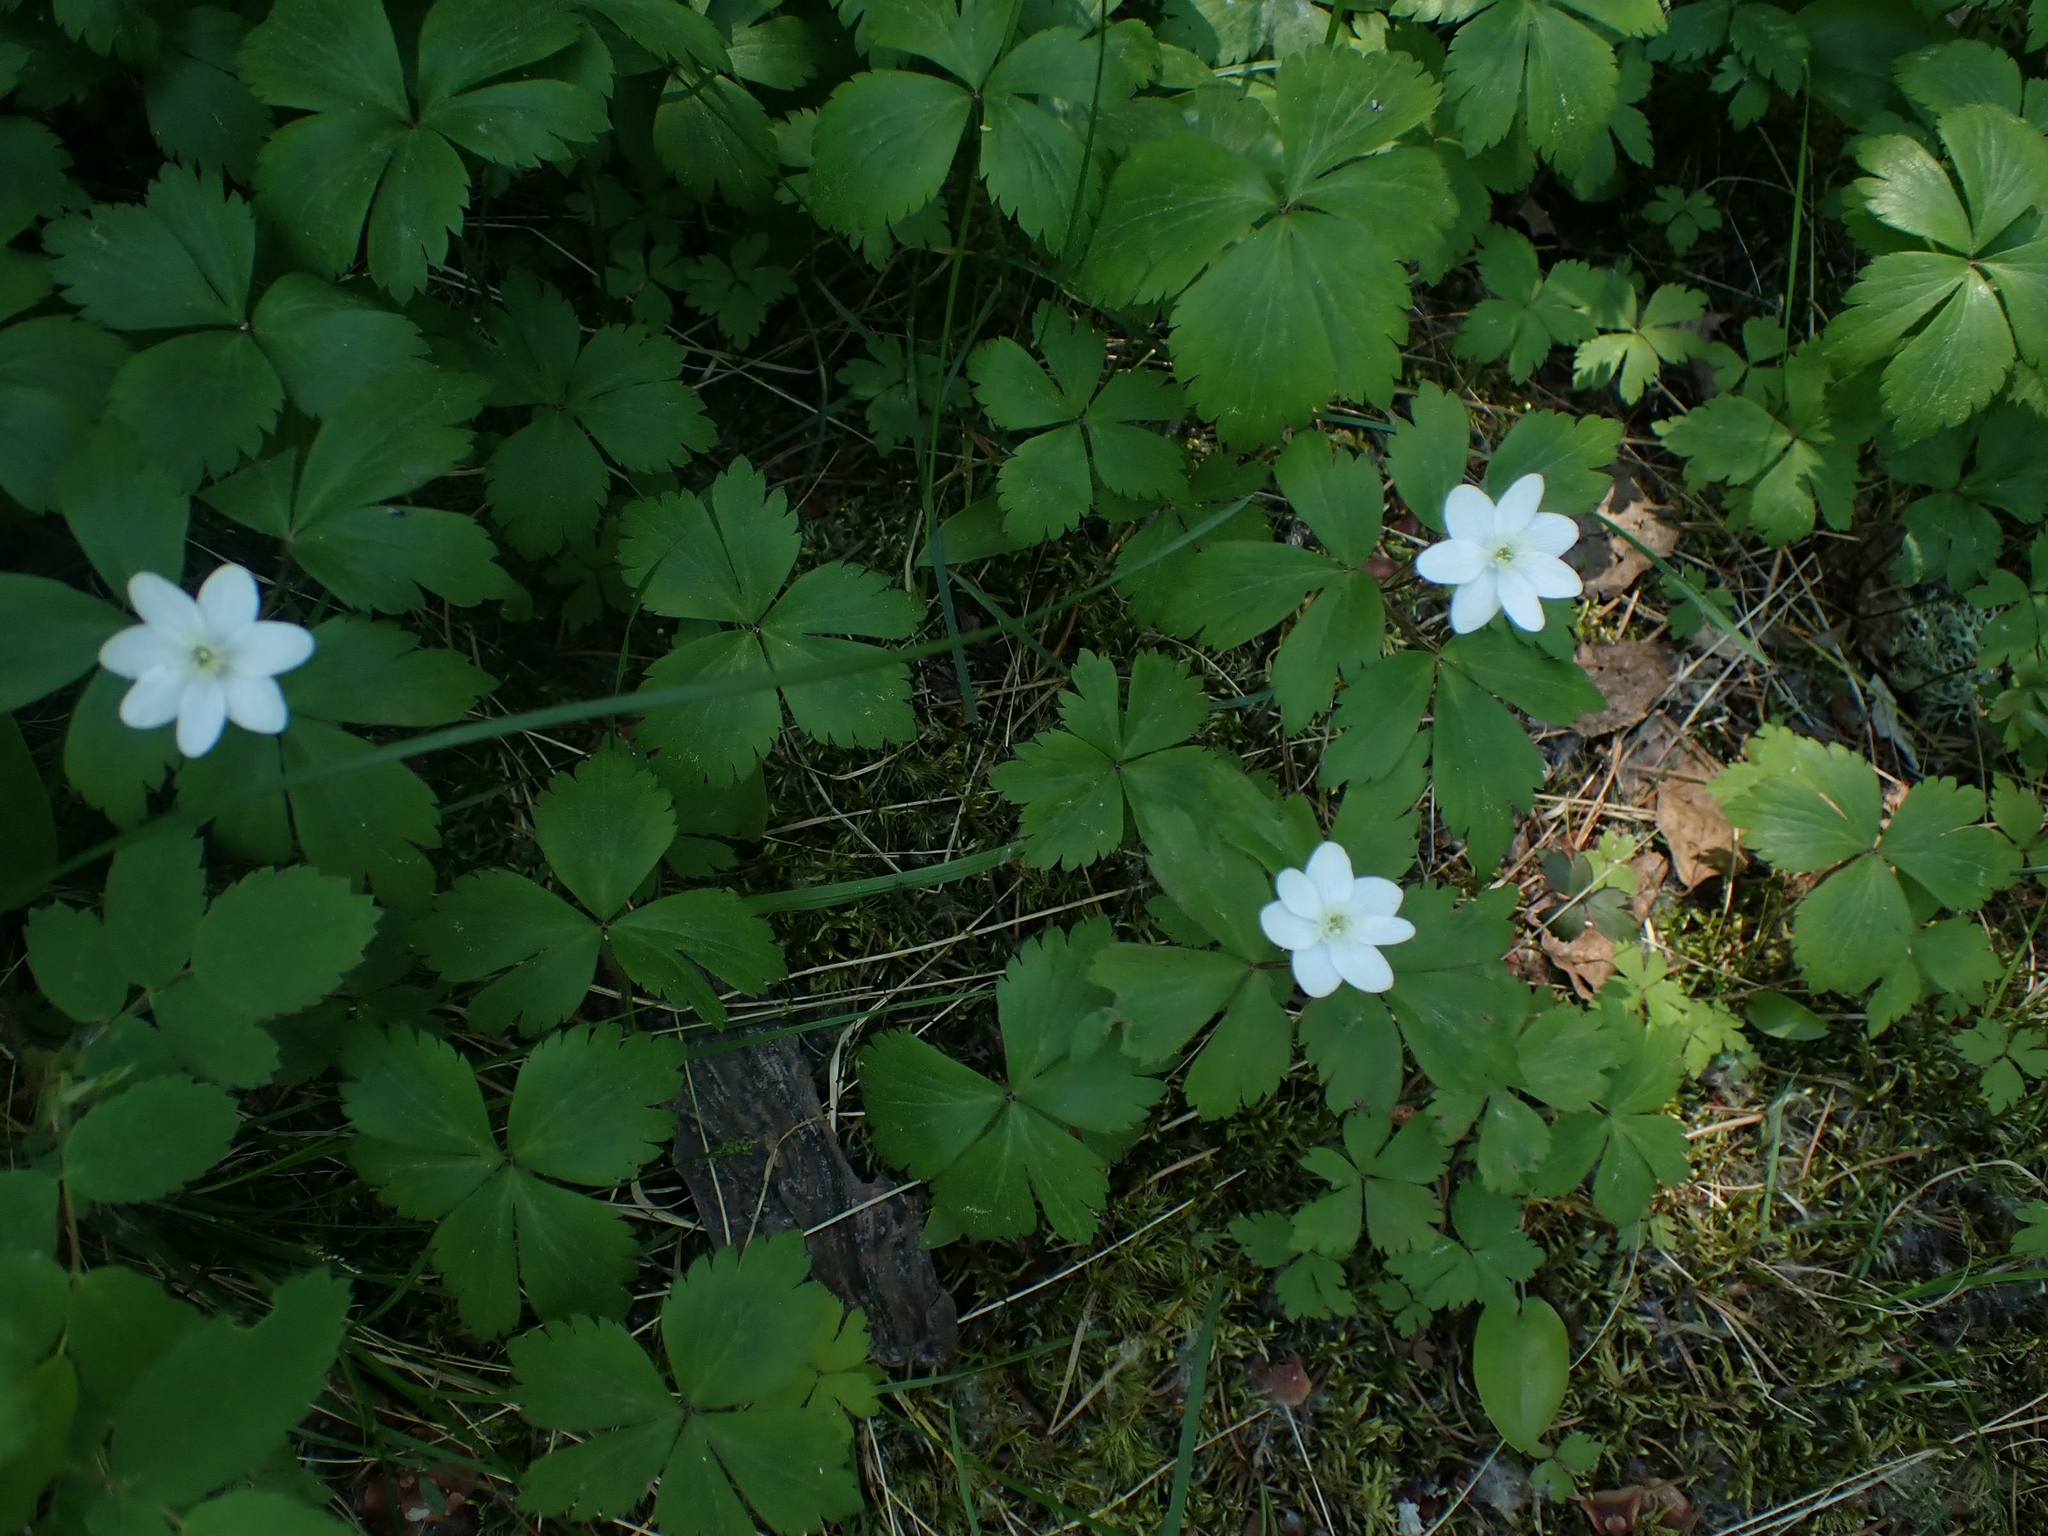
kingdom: Plantae
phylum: Tracheophyta
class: Magnoliopsida
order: Ranunculales
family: Ranunculaceae
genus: Anemone
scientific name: Anemone quinquefolia
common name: Wood anemone
